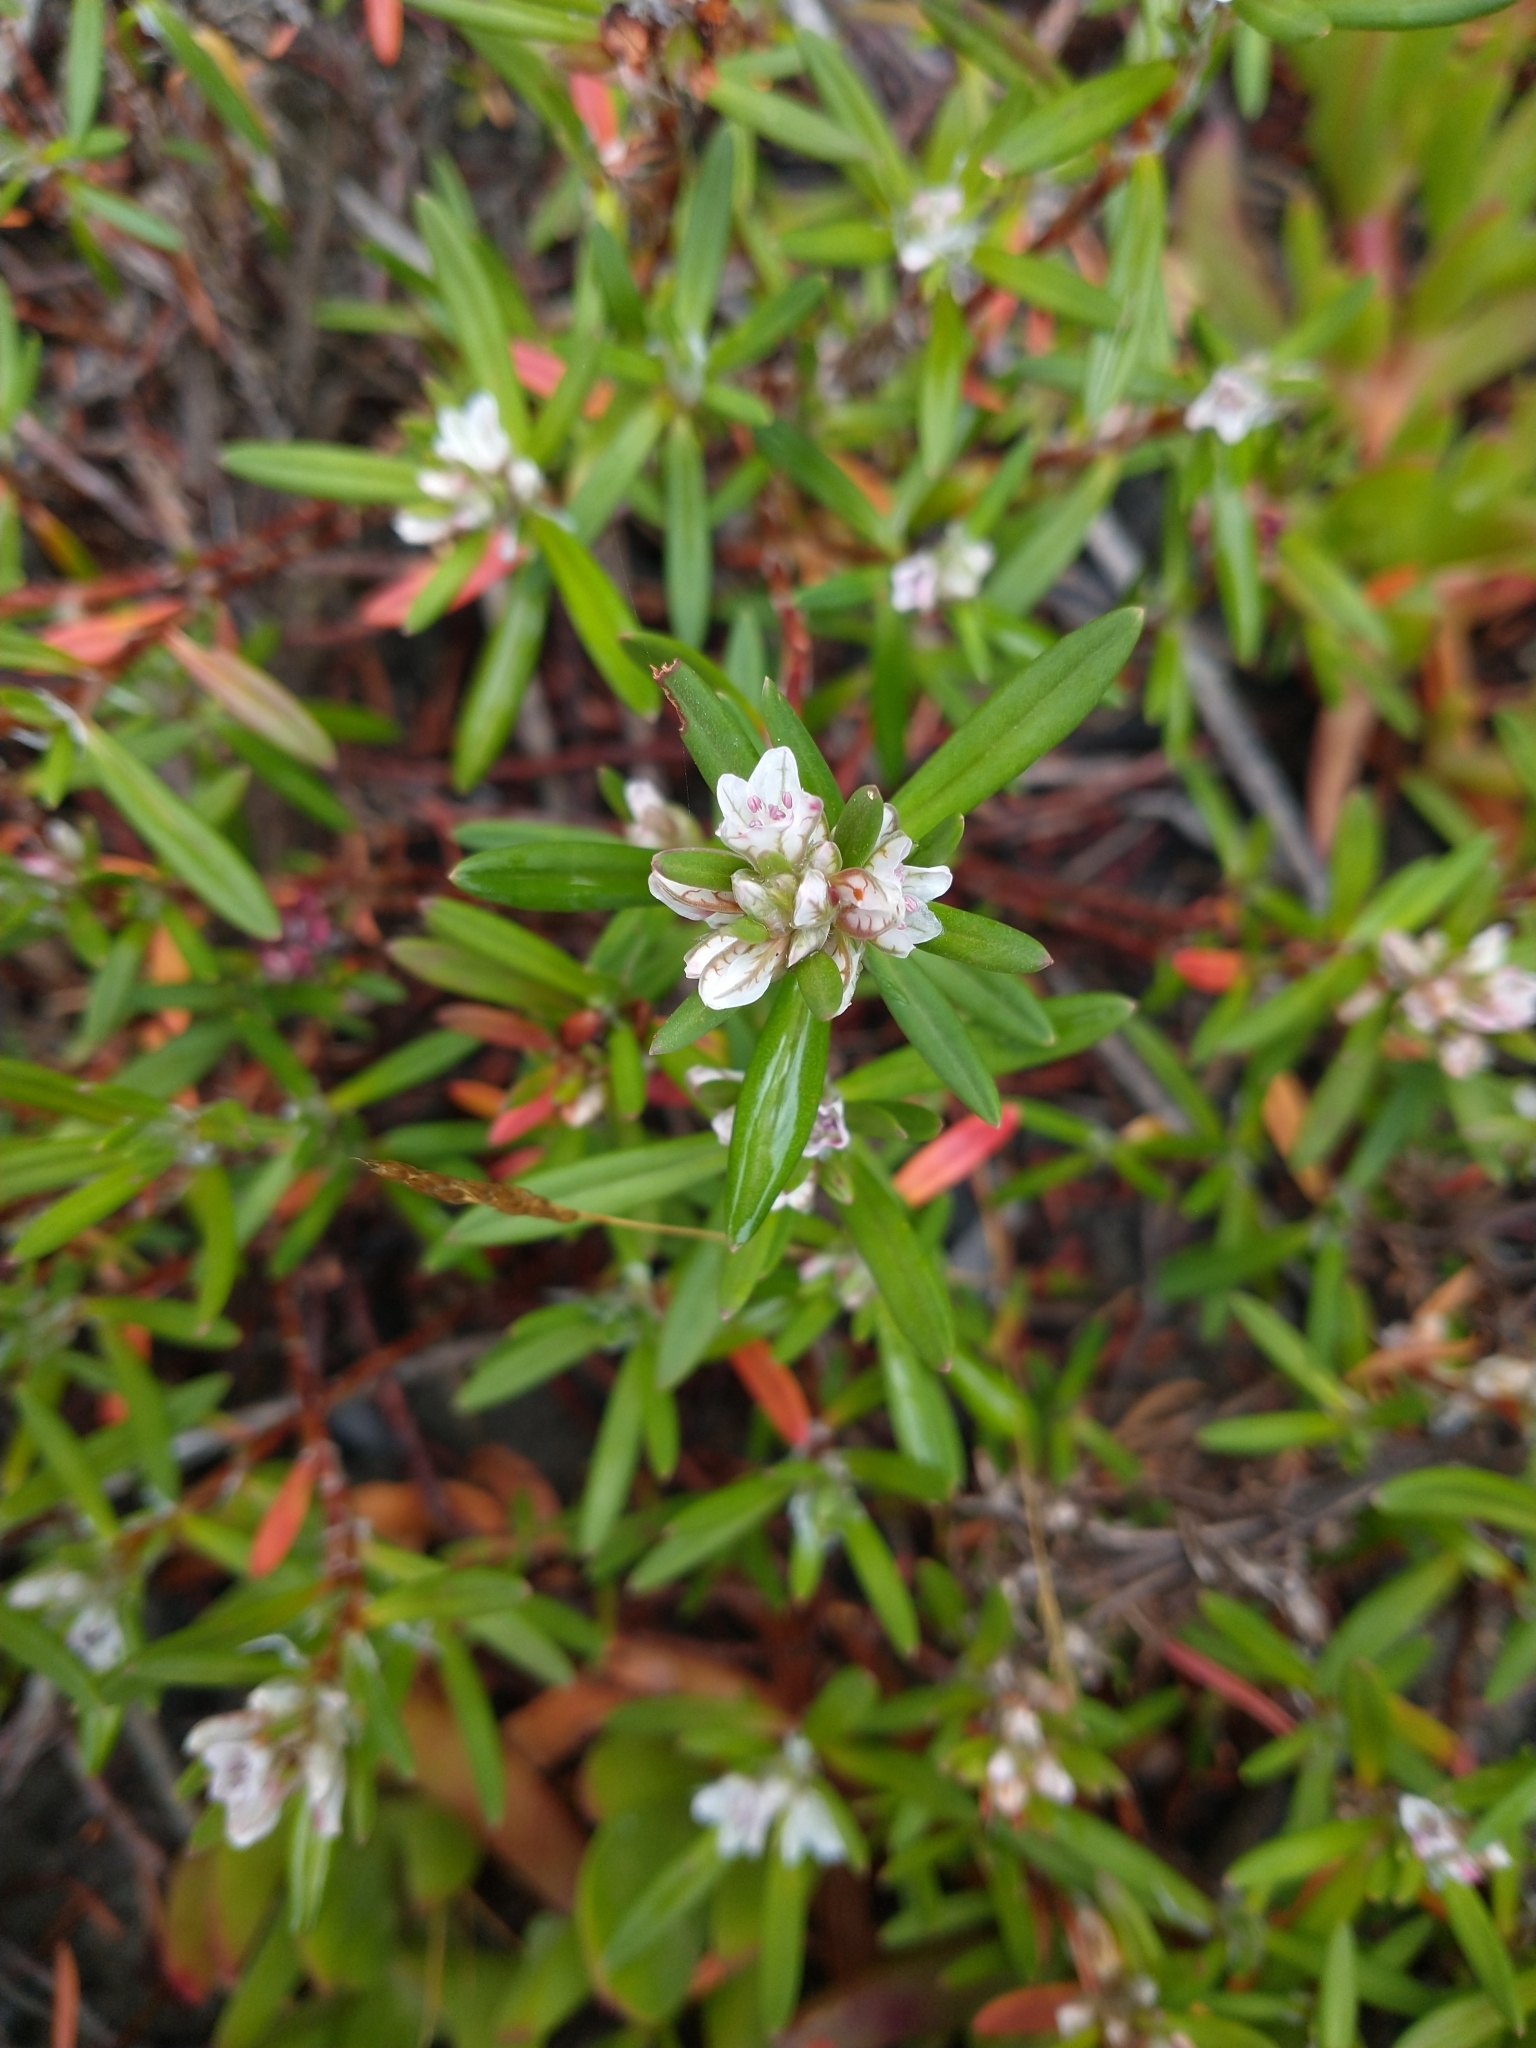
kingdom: Plantae
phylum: Tracheophyta
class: Magnoliopsida
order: Caryophyllales
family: Polygonaceae
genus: Polygonum
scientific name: Polygonum paronychia
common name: Dune knotweed
